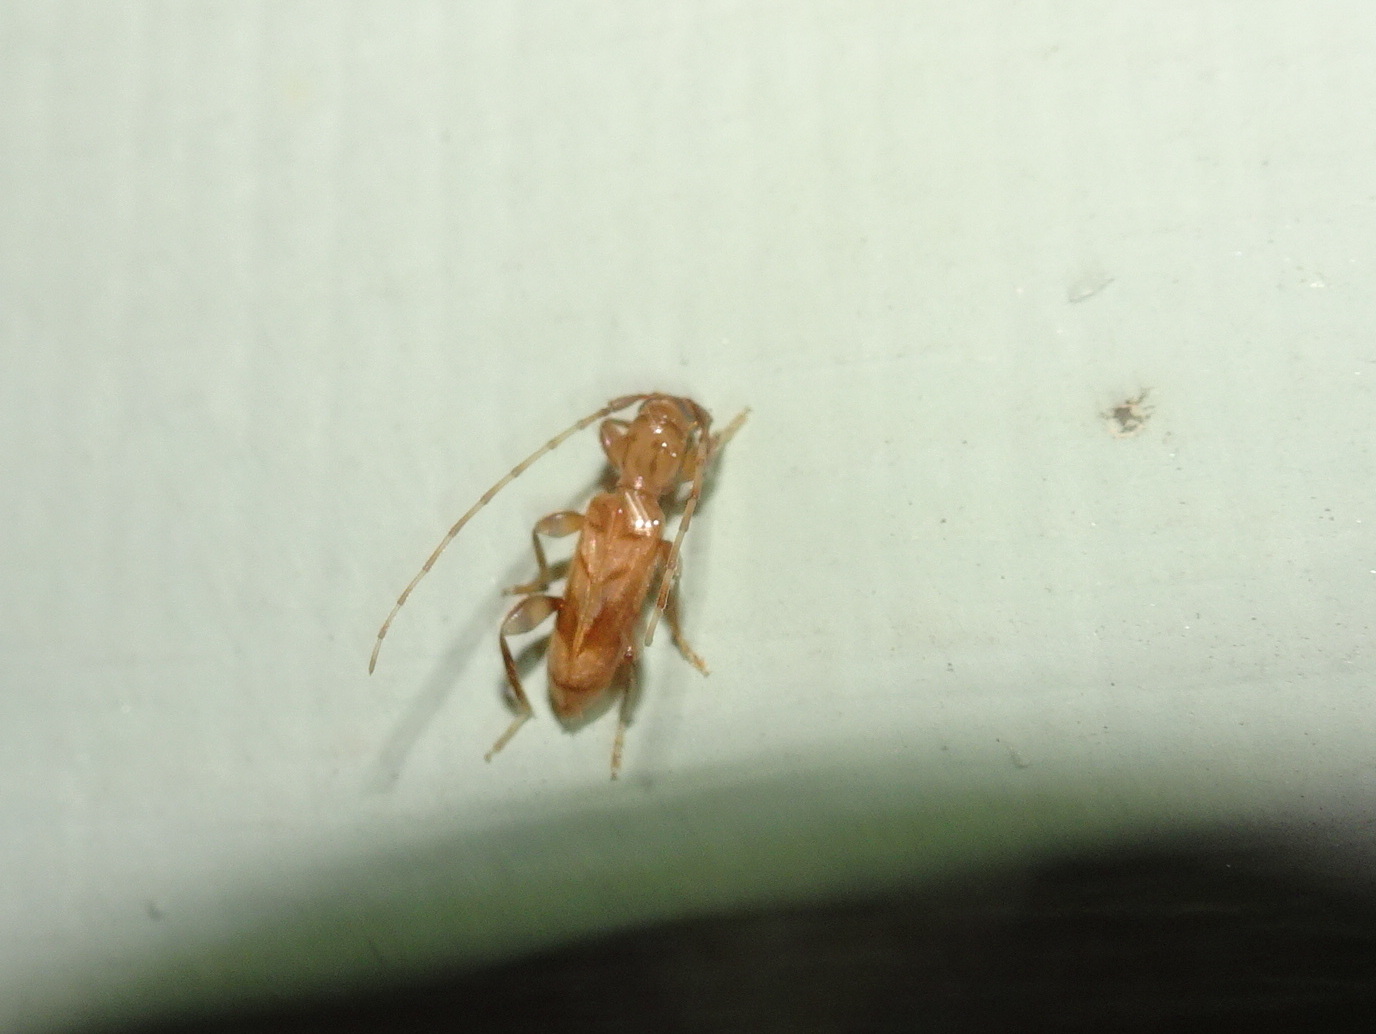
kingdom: Animalia
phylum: Arthropoda
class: Insecta
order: Coleoptera
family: Cerambycidae
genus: Obrium
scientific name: Obrium maculatum
